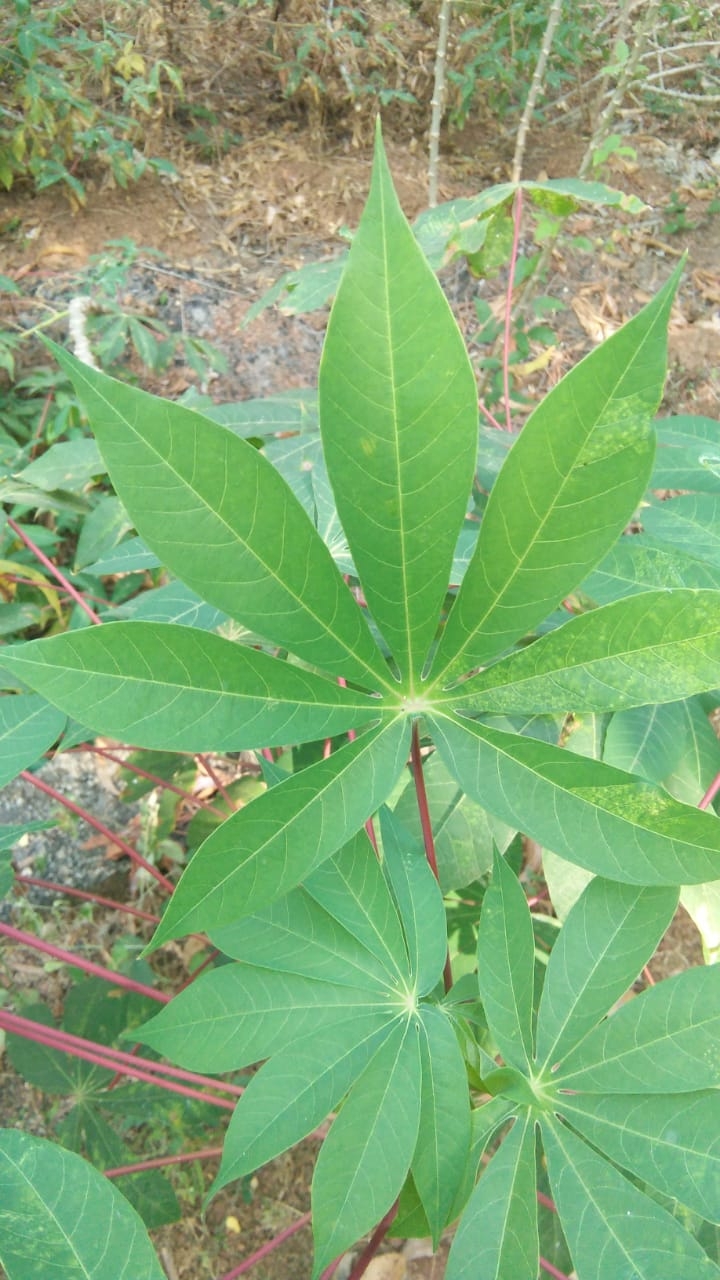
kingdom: Plantae
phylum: Tracheophyta
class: Magnoliopsida
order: Malpighiales
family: Euphorbiaceae
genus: Manihot
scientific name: Manihot esculenta
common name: Cassava
